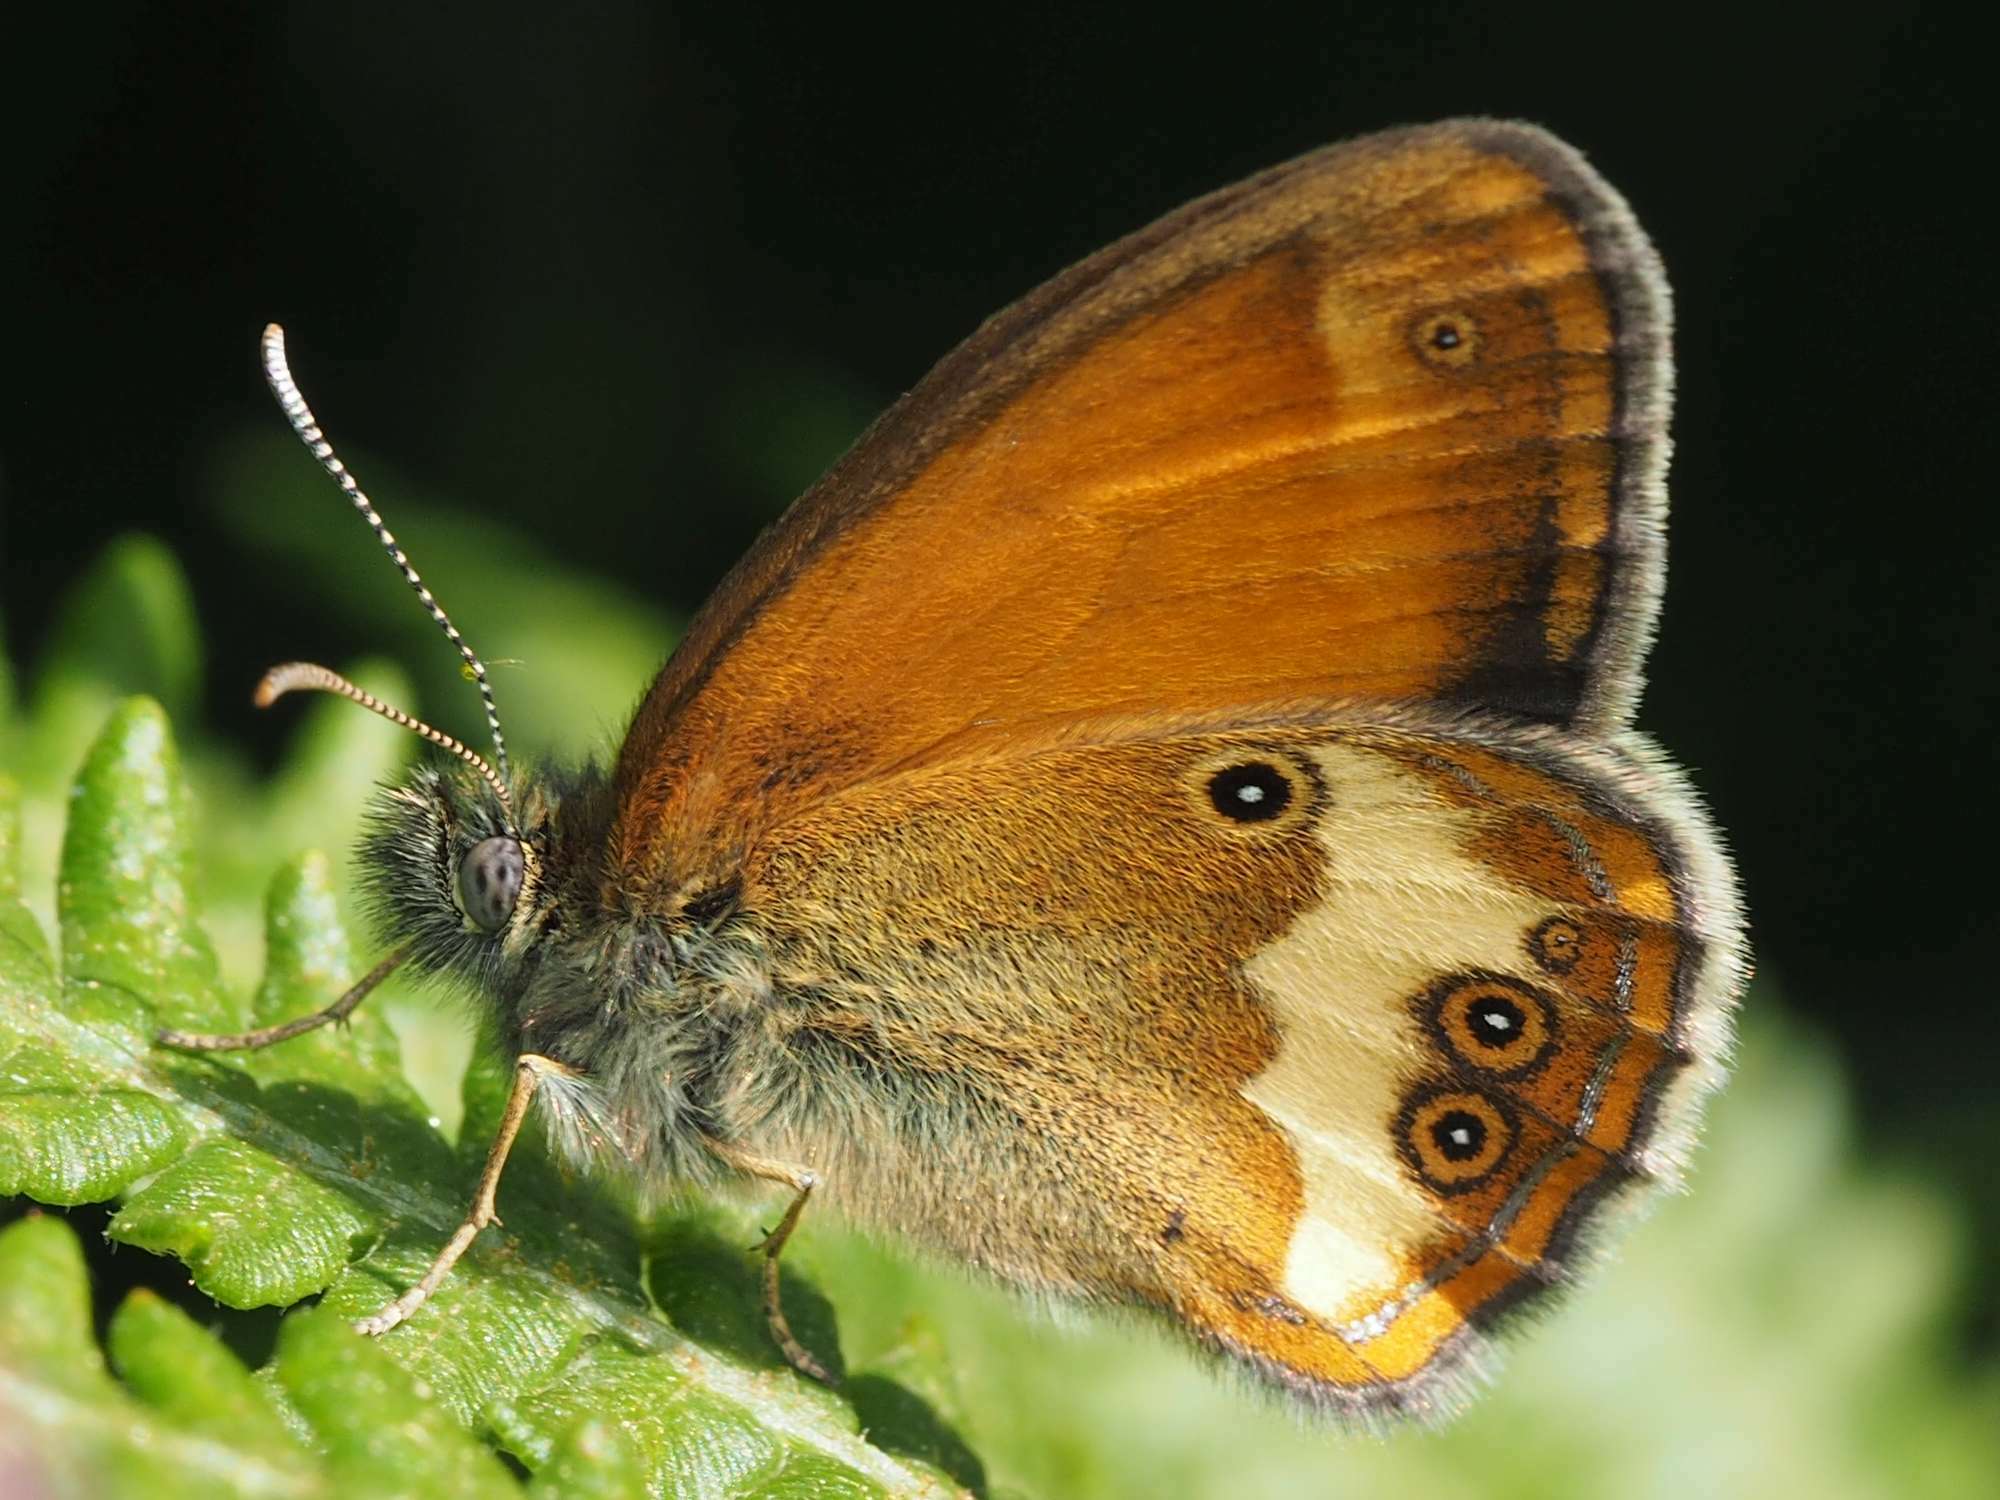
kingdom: Animalia
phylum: Arthropoda
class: Insecta
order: Lepidoptera
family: Nymphalidae
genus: Coenonympha
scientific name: Coenonympha arcania
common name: Pearly heath
